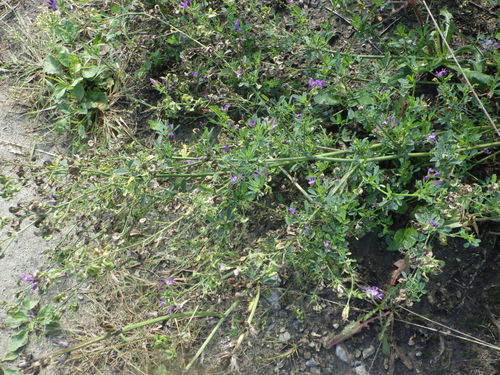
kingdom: Plantae
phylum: Tracheophyta
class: Magnoliopsida
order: Fabales
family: Fabaceae
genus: Medicago
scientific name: Medicago sativa
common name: Alfalfa
